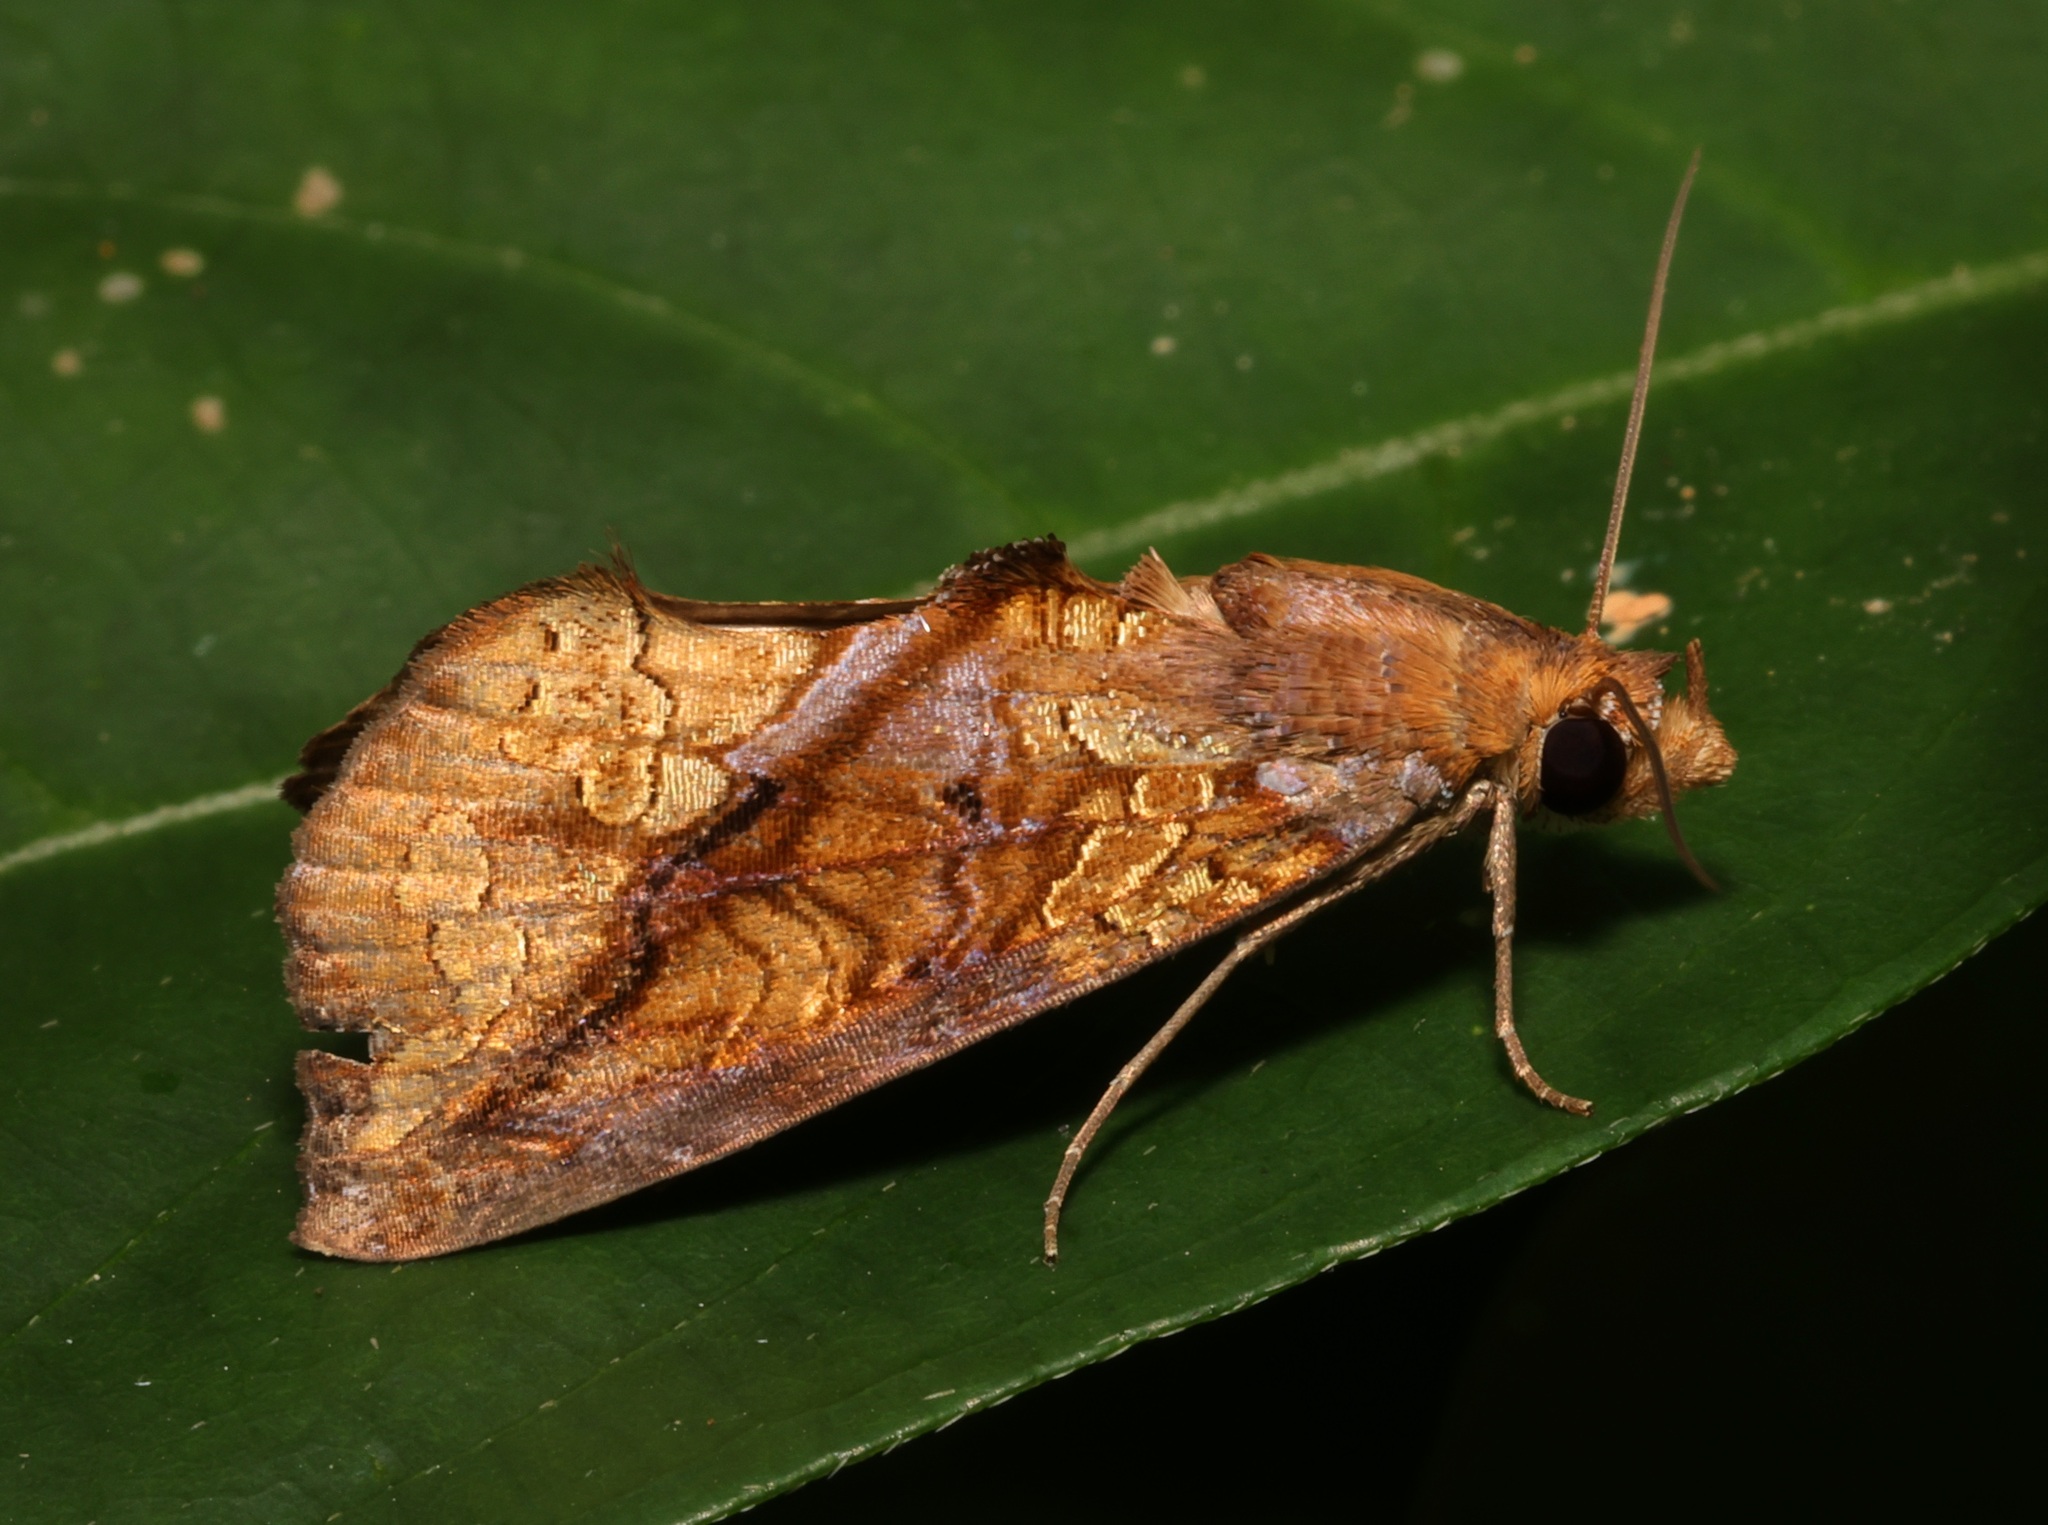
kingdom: Animalia
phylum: Arthropoda
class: Insecta
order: Lepidoptera
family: Erebidae
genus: Plusiodonta
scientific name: Plusiodonta coelonota
